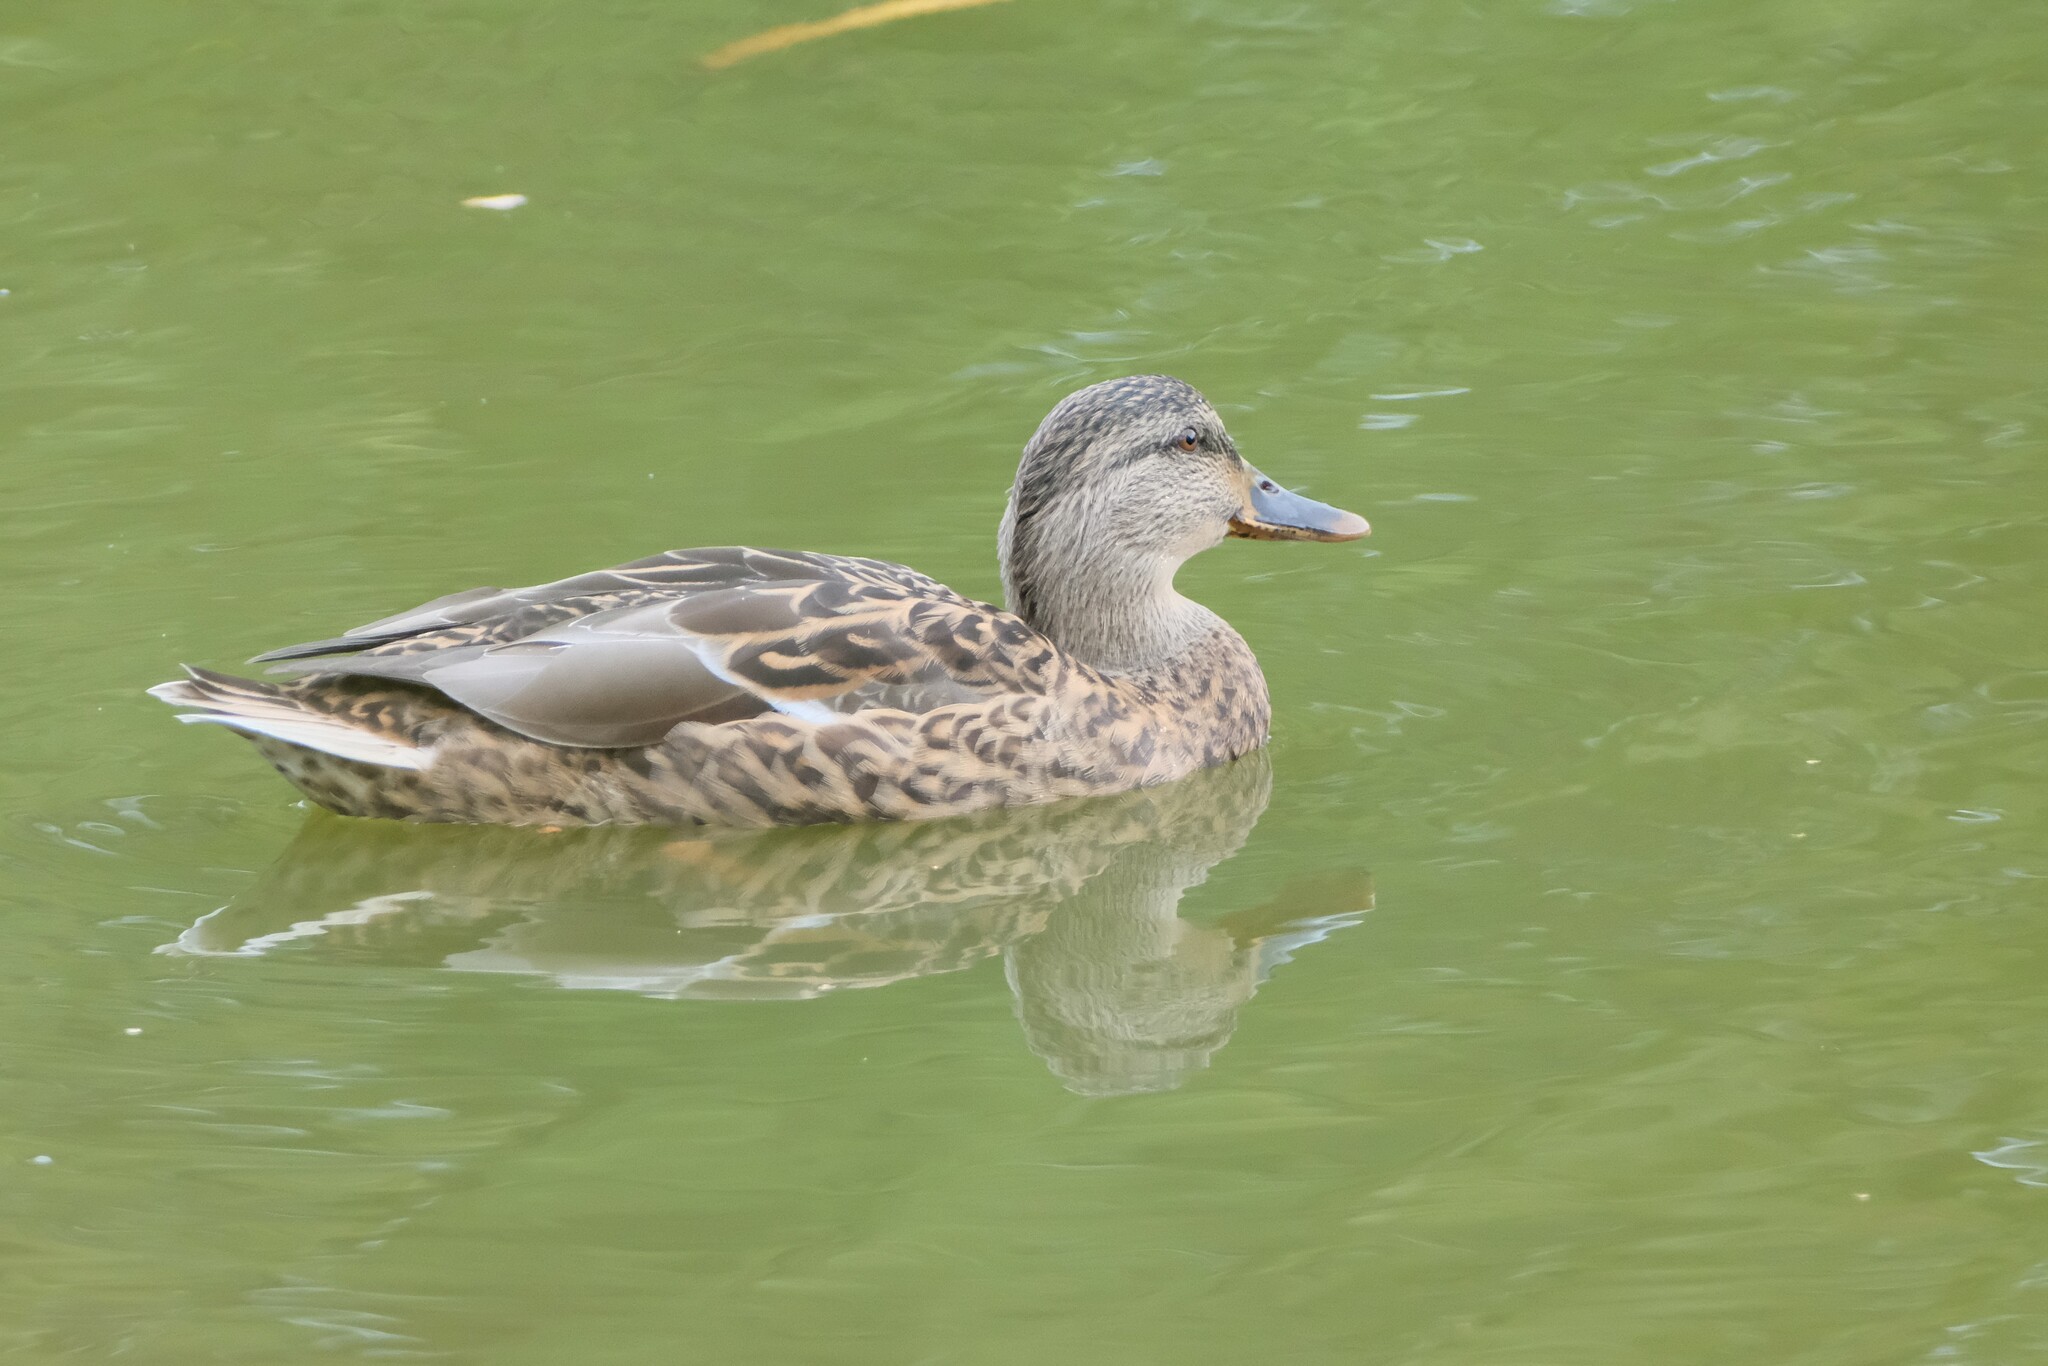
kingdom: Animalia
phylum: Chordata
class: Aves
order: Anseriformes
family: Anatidae
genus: Anas
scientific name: Anas platyrhynchos
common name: Mallard
